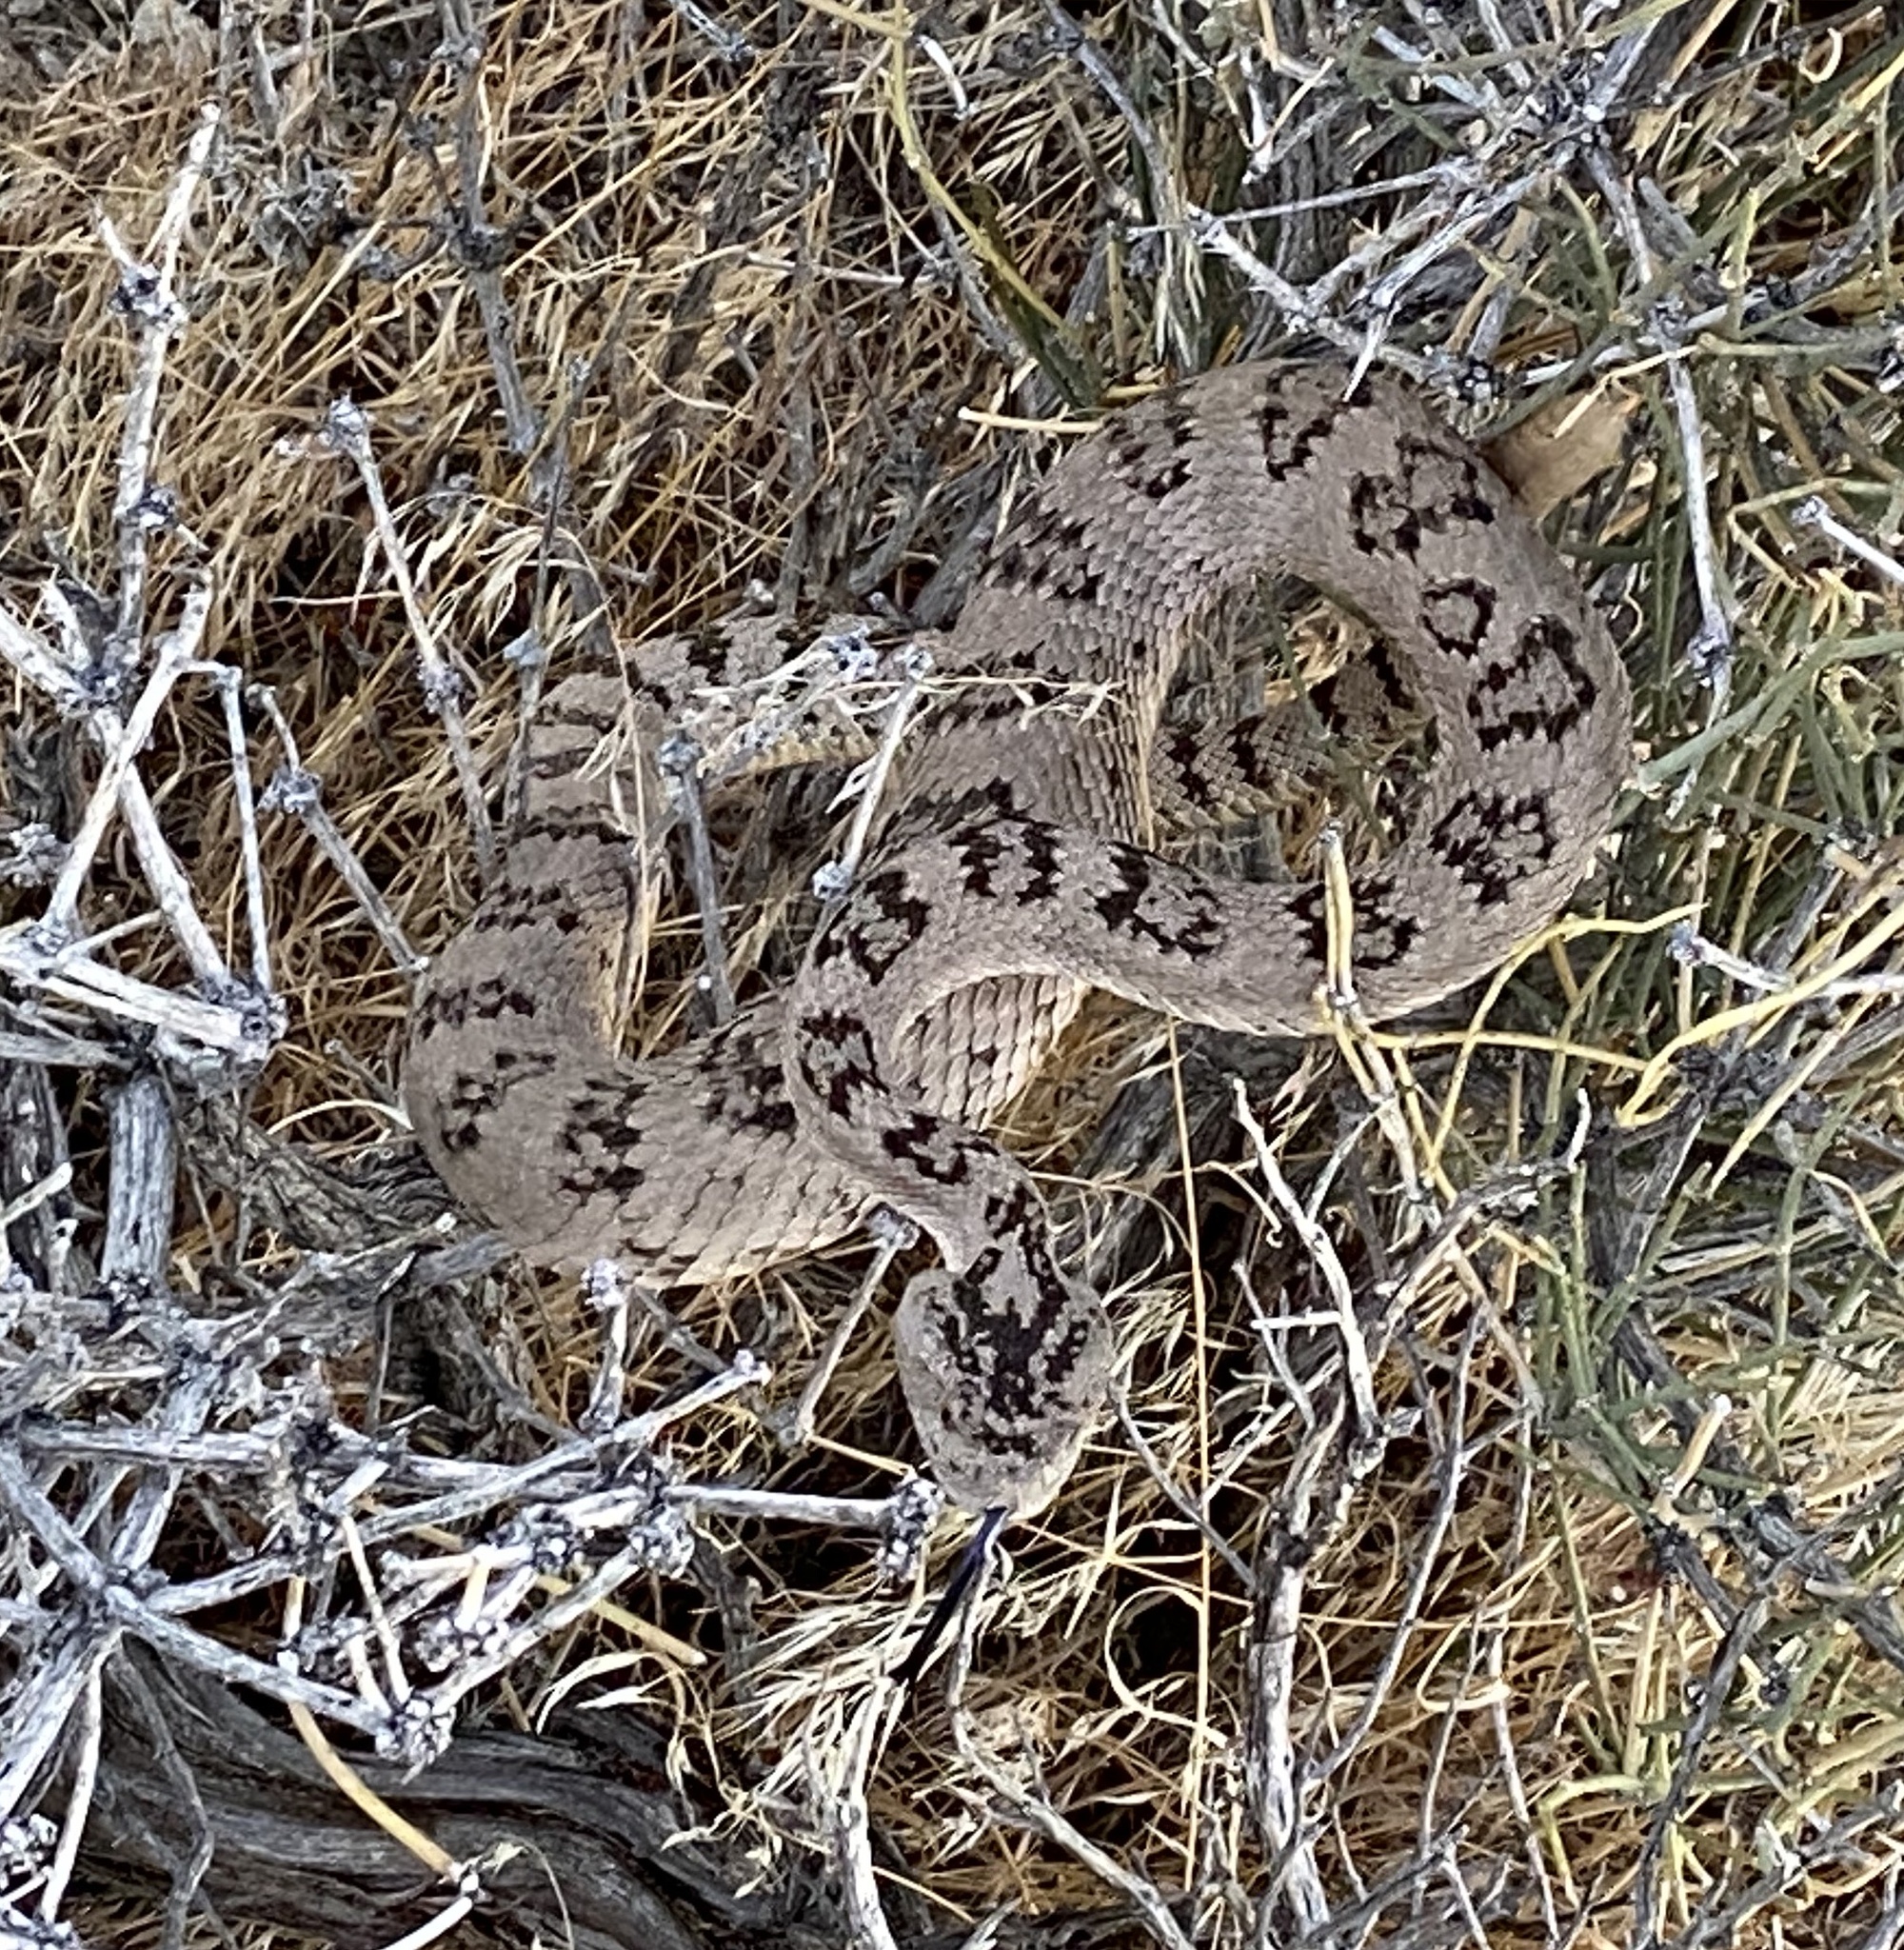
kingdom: Animalia
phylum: Chordata
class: Squamata
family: Viperidae
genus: Crotalus
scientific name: Crotalus oreganus
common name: Abyssus
